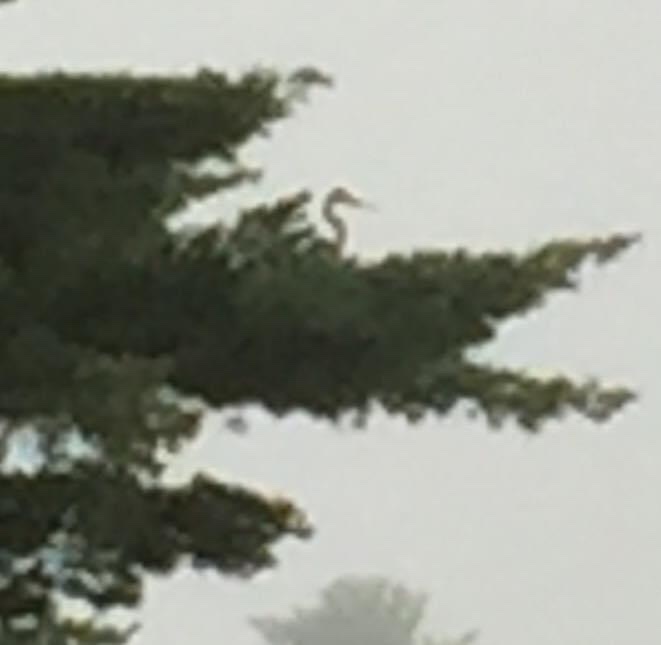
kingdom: Animalia
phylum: Chordata
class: Aves
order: Pelecaniformes
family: Ardeidae
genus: Ardea
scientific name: Ardea herodias
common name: Great blue heron
